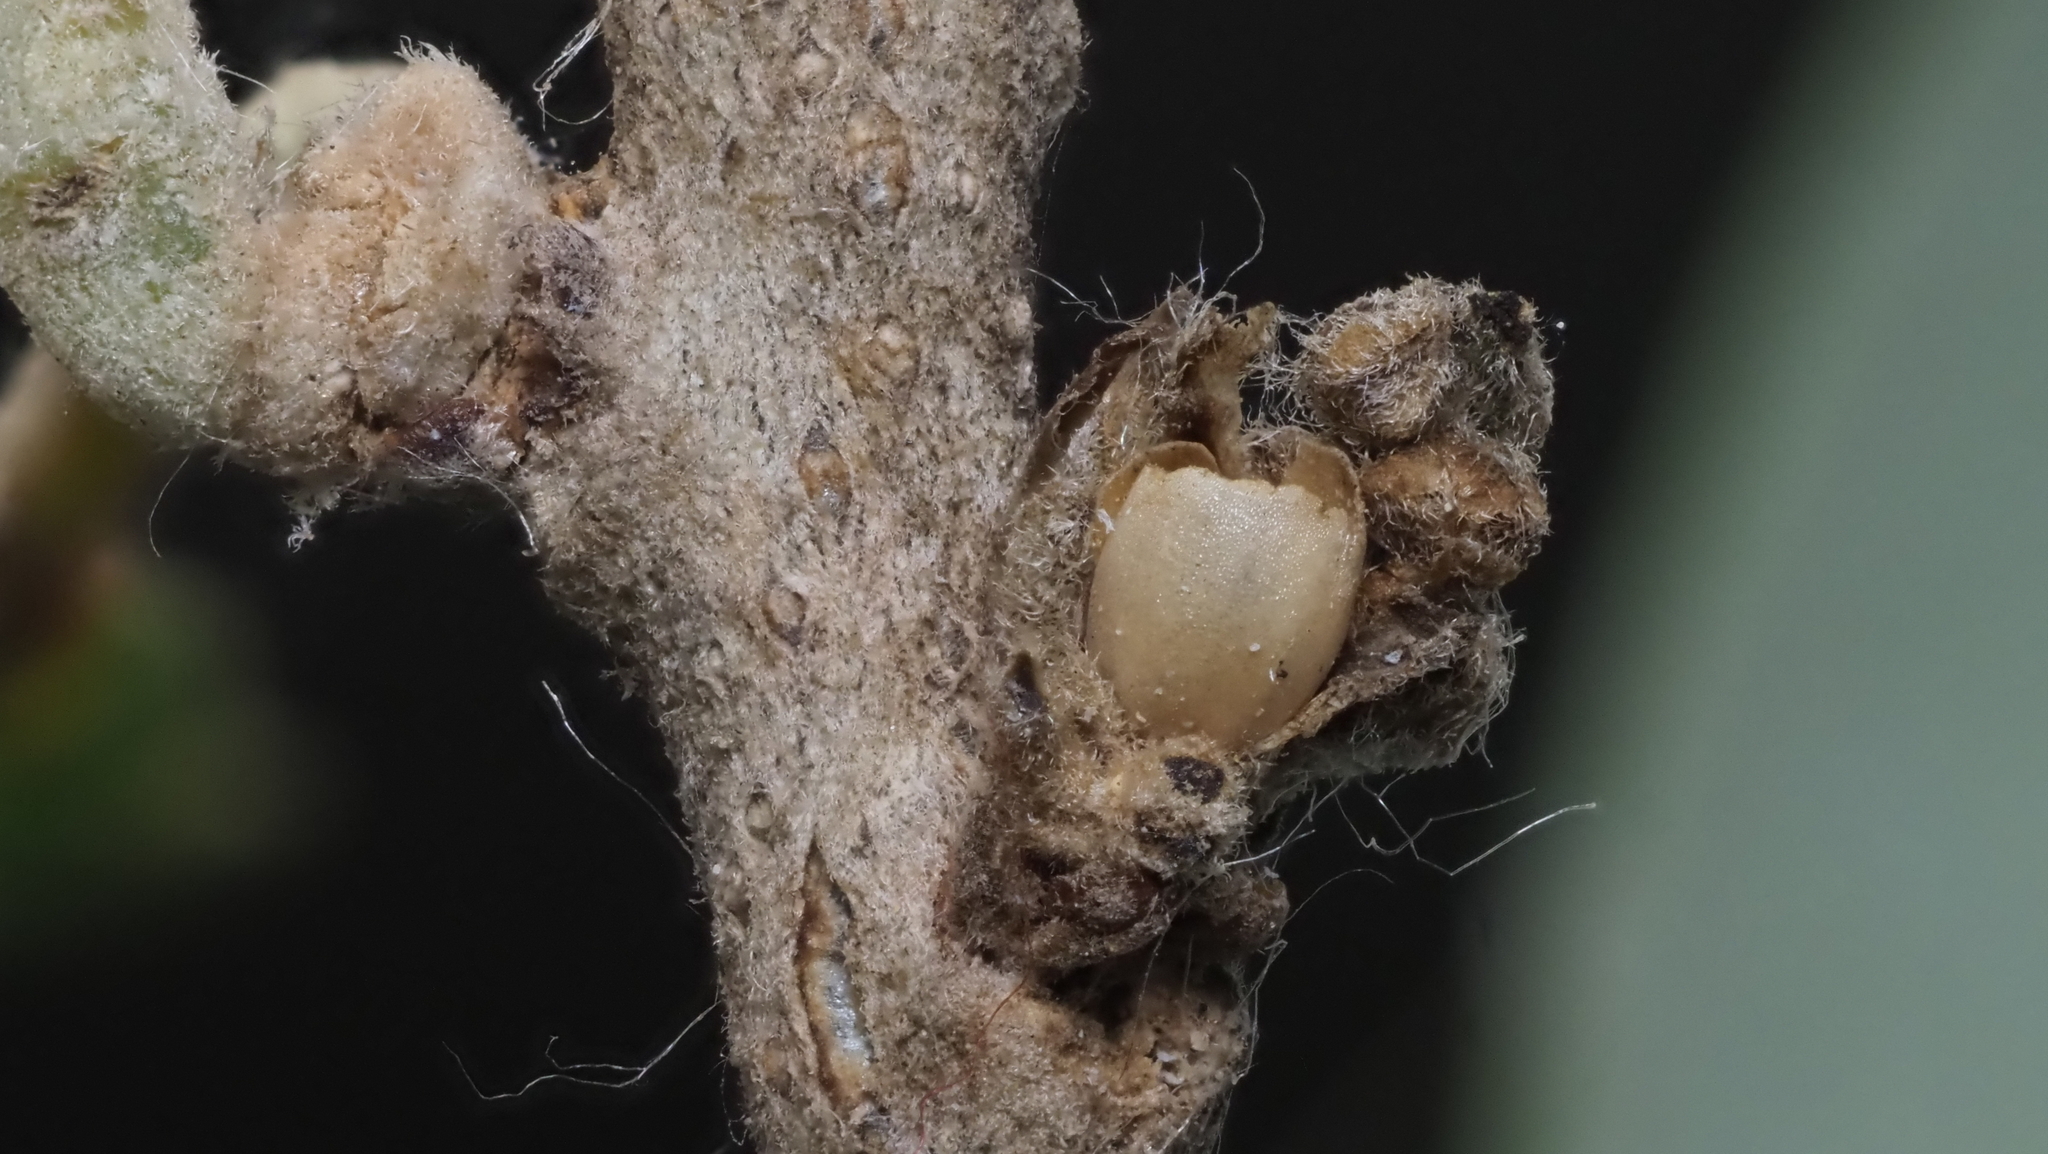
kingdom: Animalia
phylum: Arthropoda
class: Insecta
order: Hymenoptera
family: Cynipidae
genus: Disholcaspis
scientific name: Disholcaspis
